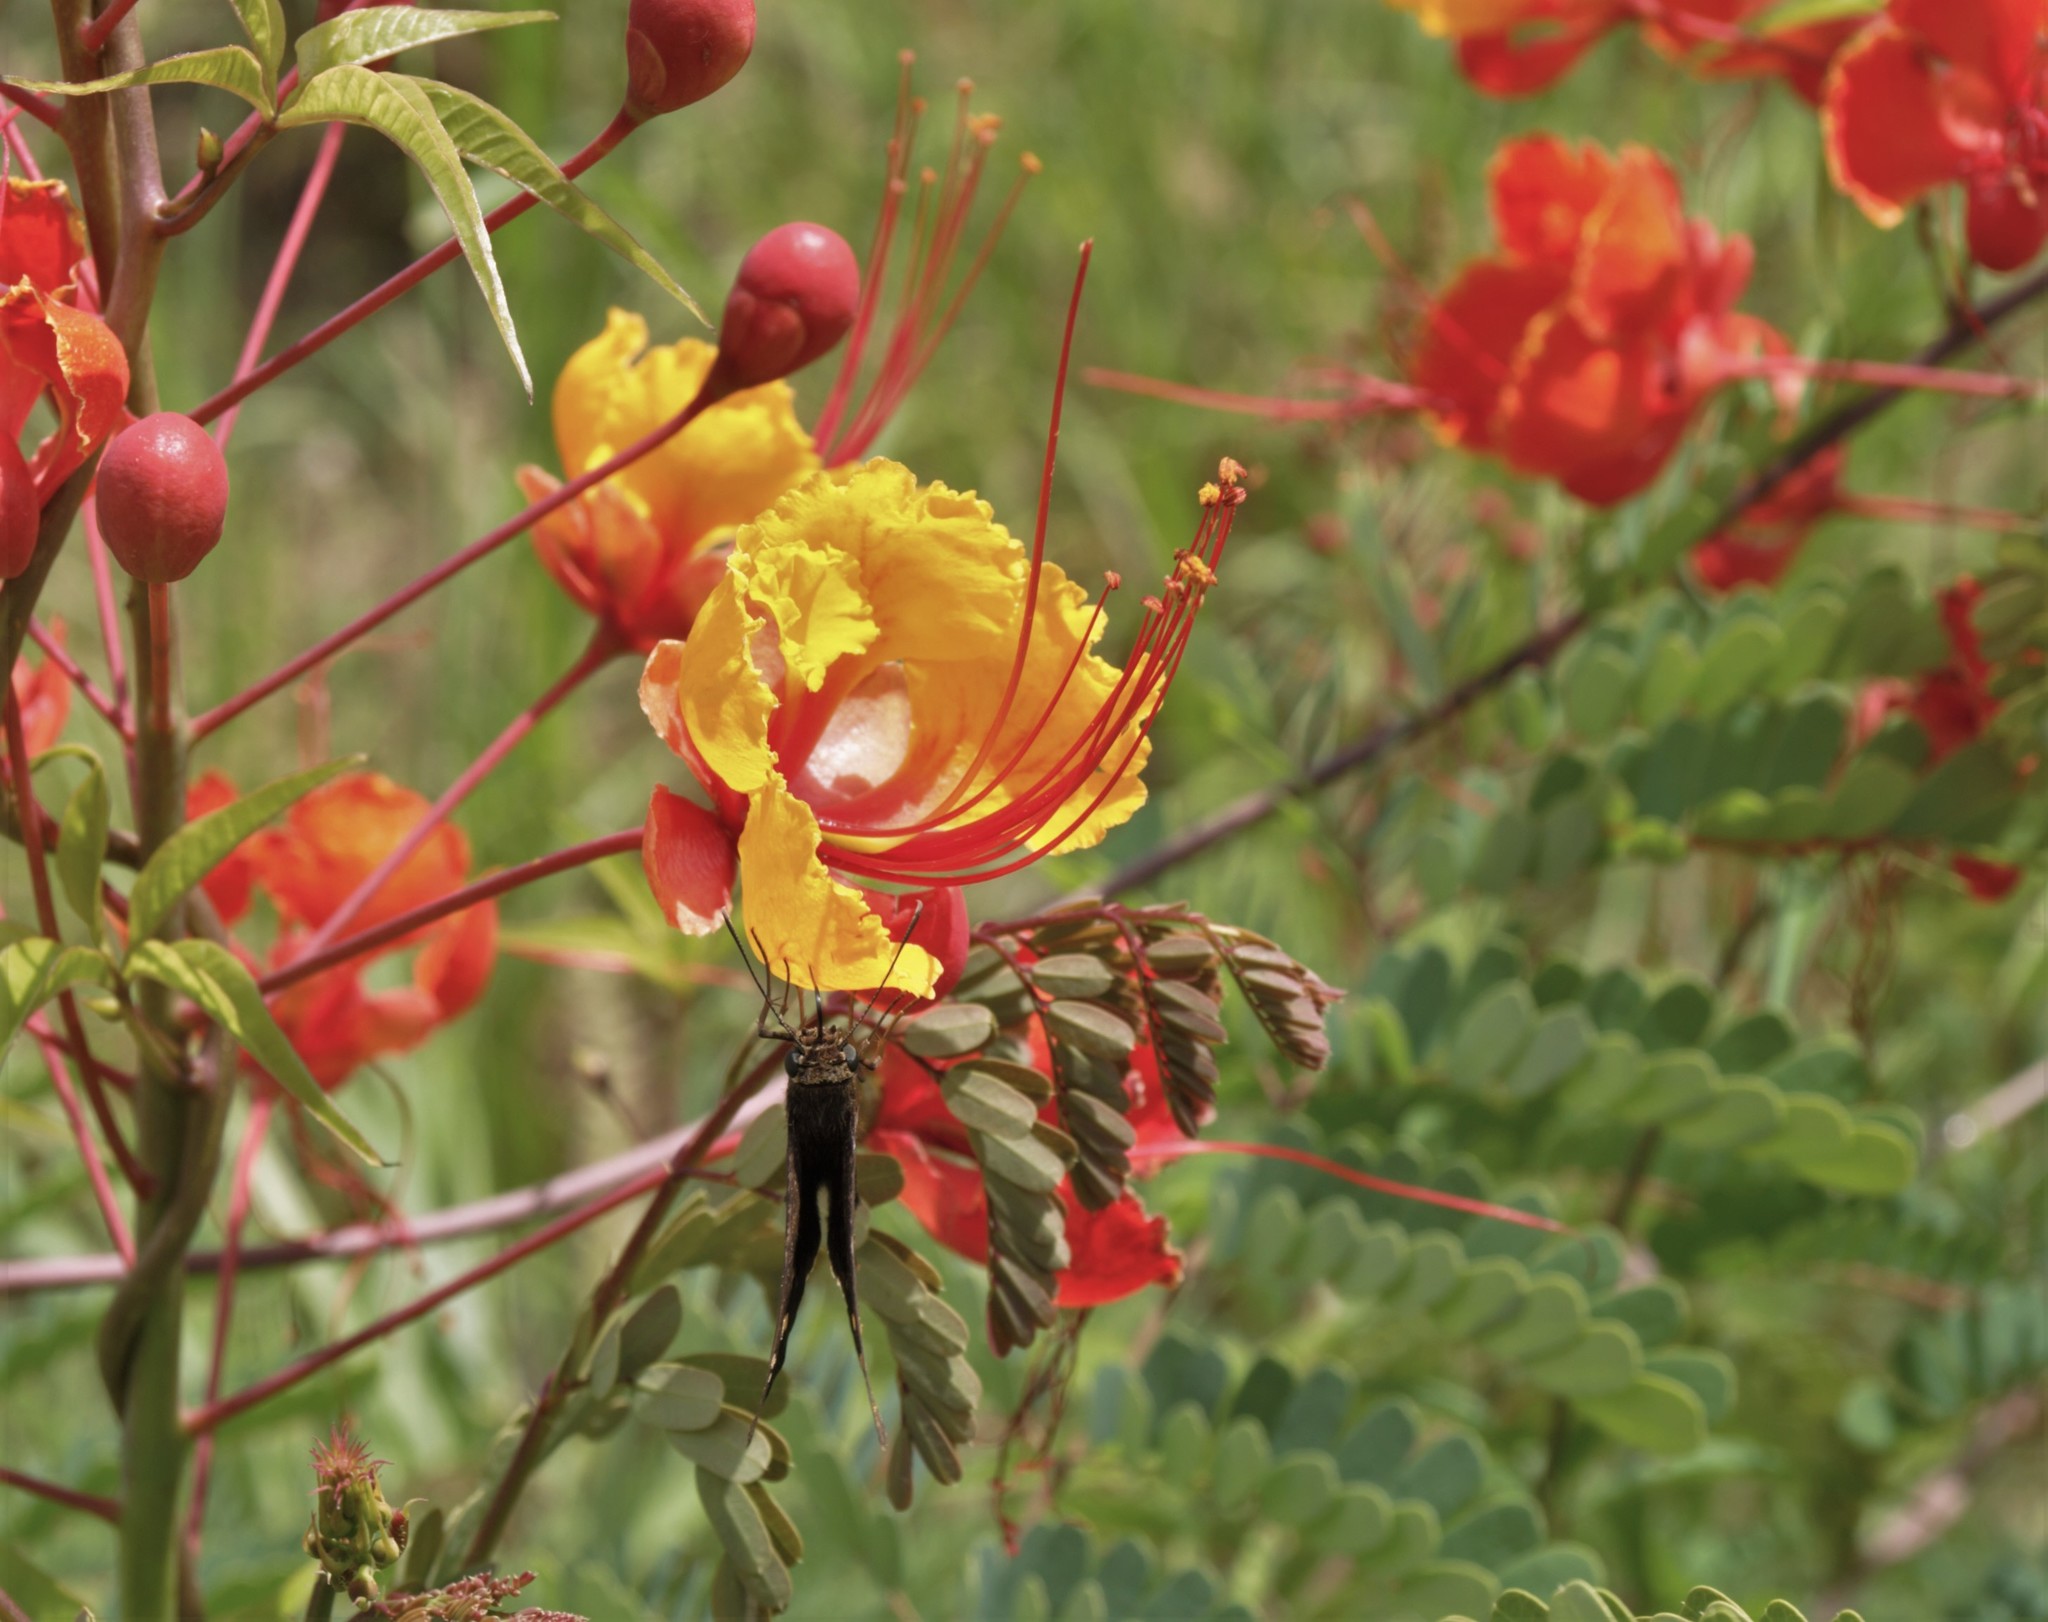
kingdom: Plantae
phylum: Tracheophyta
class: Magnoliopsida
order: Fabales
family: Fabaceae
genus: Caesalpinia
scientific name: Caesalpinia pulcherrima
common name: Pride-of-barbados
